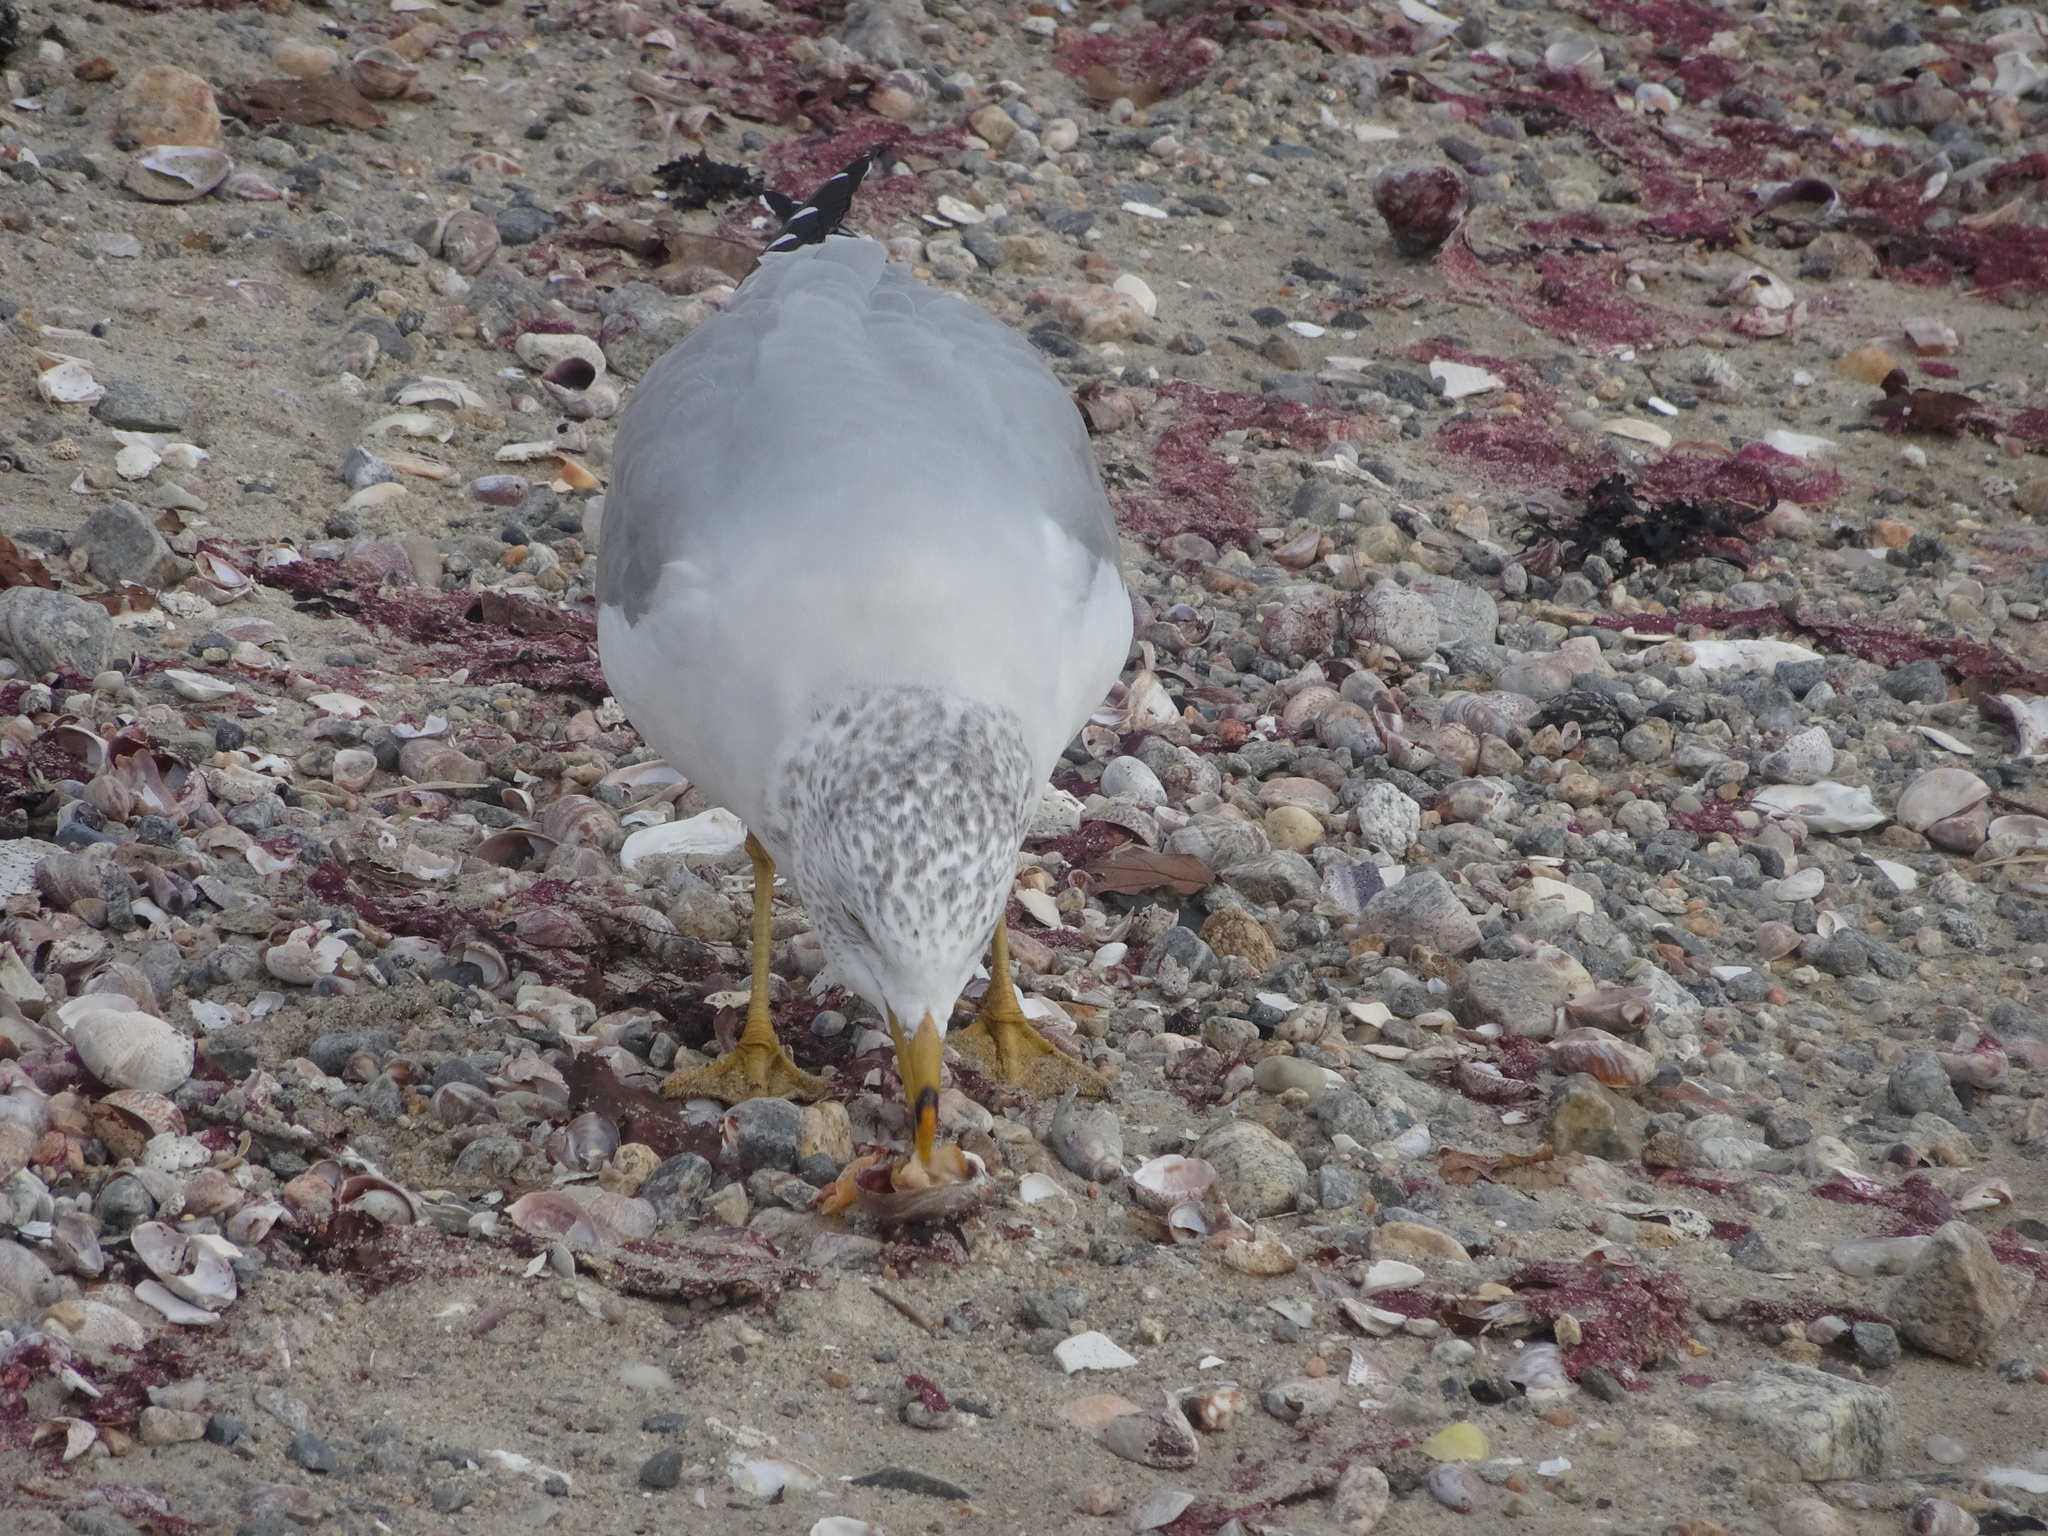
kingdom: Animalia
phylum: Chordata
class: Aves
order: Charadriiformes
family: Laridae
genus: Larus
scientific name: Larus delawarensis
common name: Ring-billed gull
